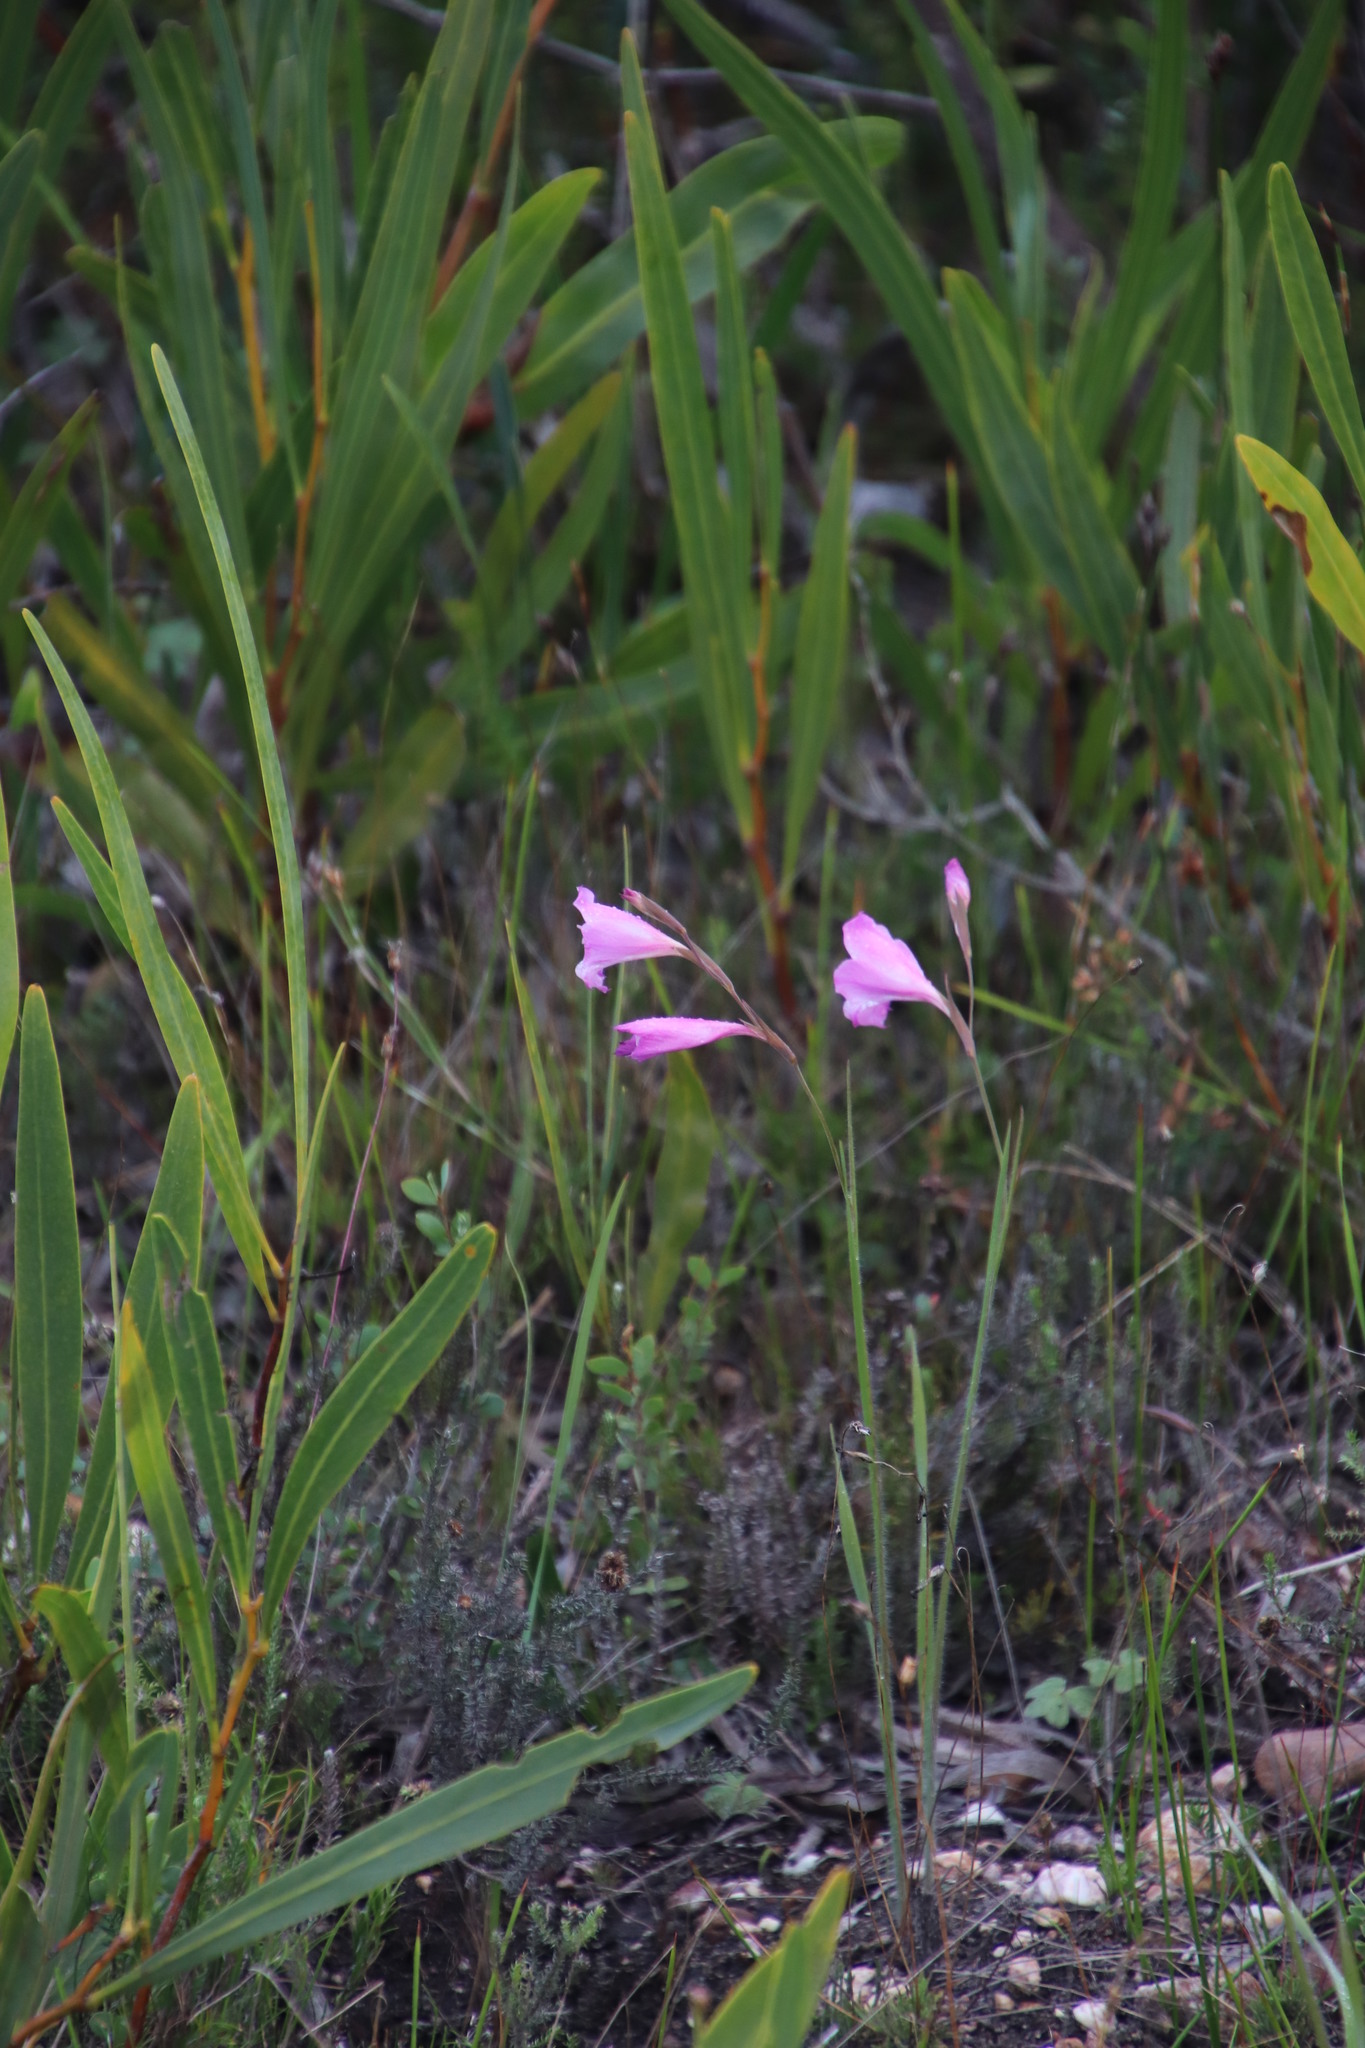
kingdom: Plantae
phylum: Tracheophyta
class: Liliopsida
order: Asparagales
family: Iridaceae
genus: Gladiolus
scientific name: Gladiolus hirsutus
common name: Small pink afrikaner
